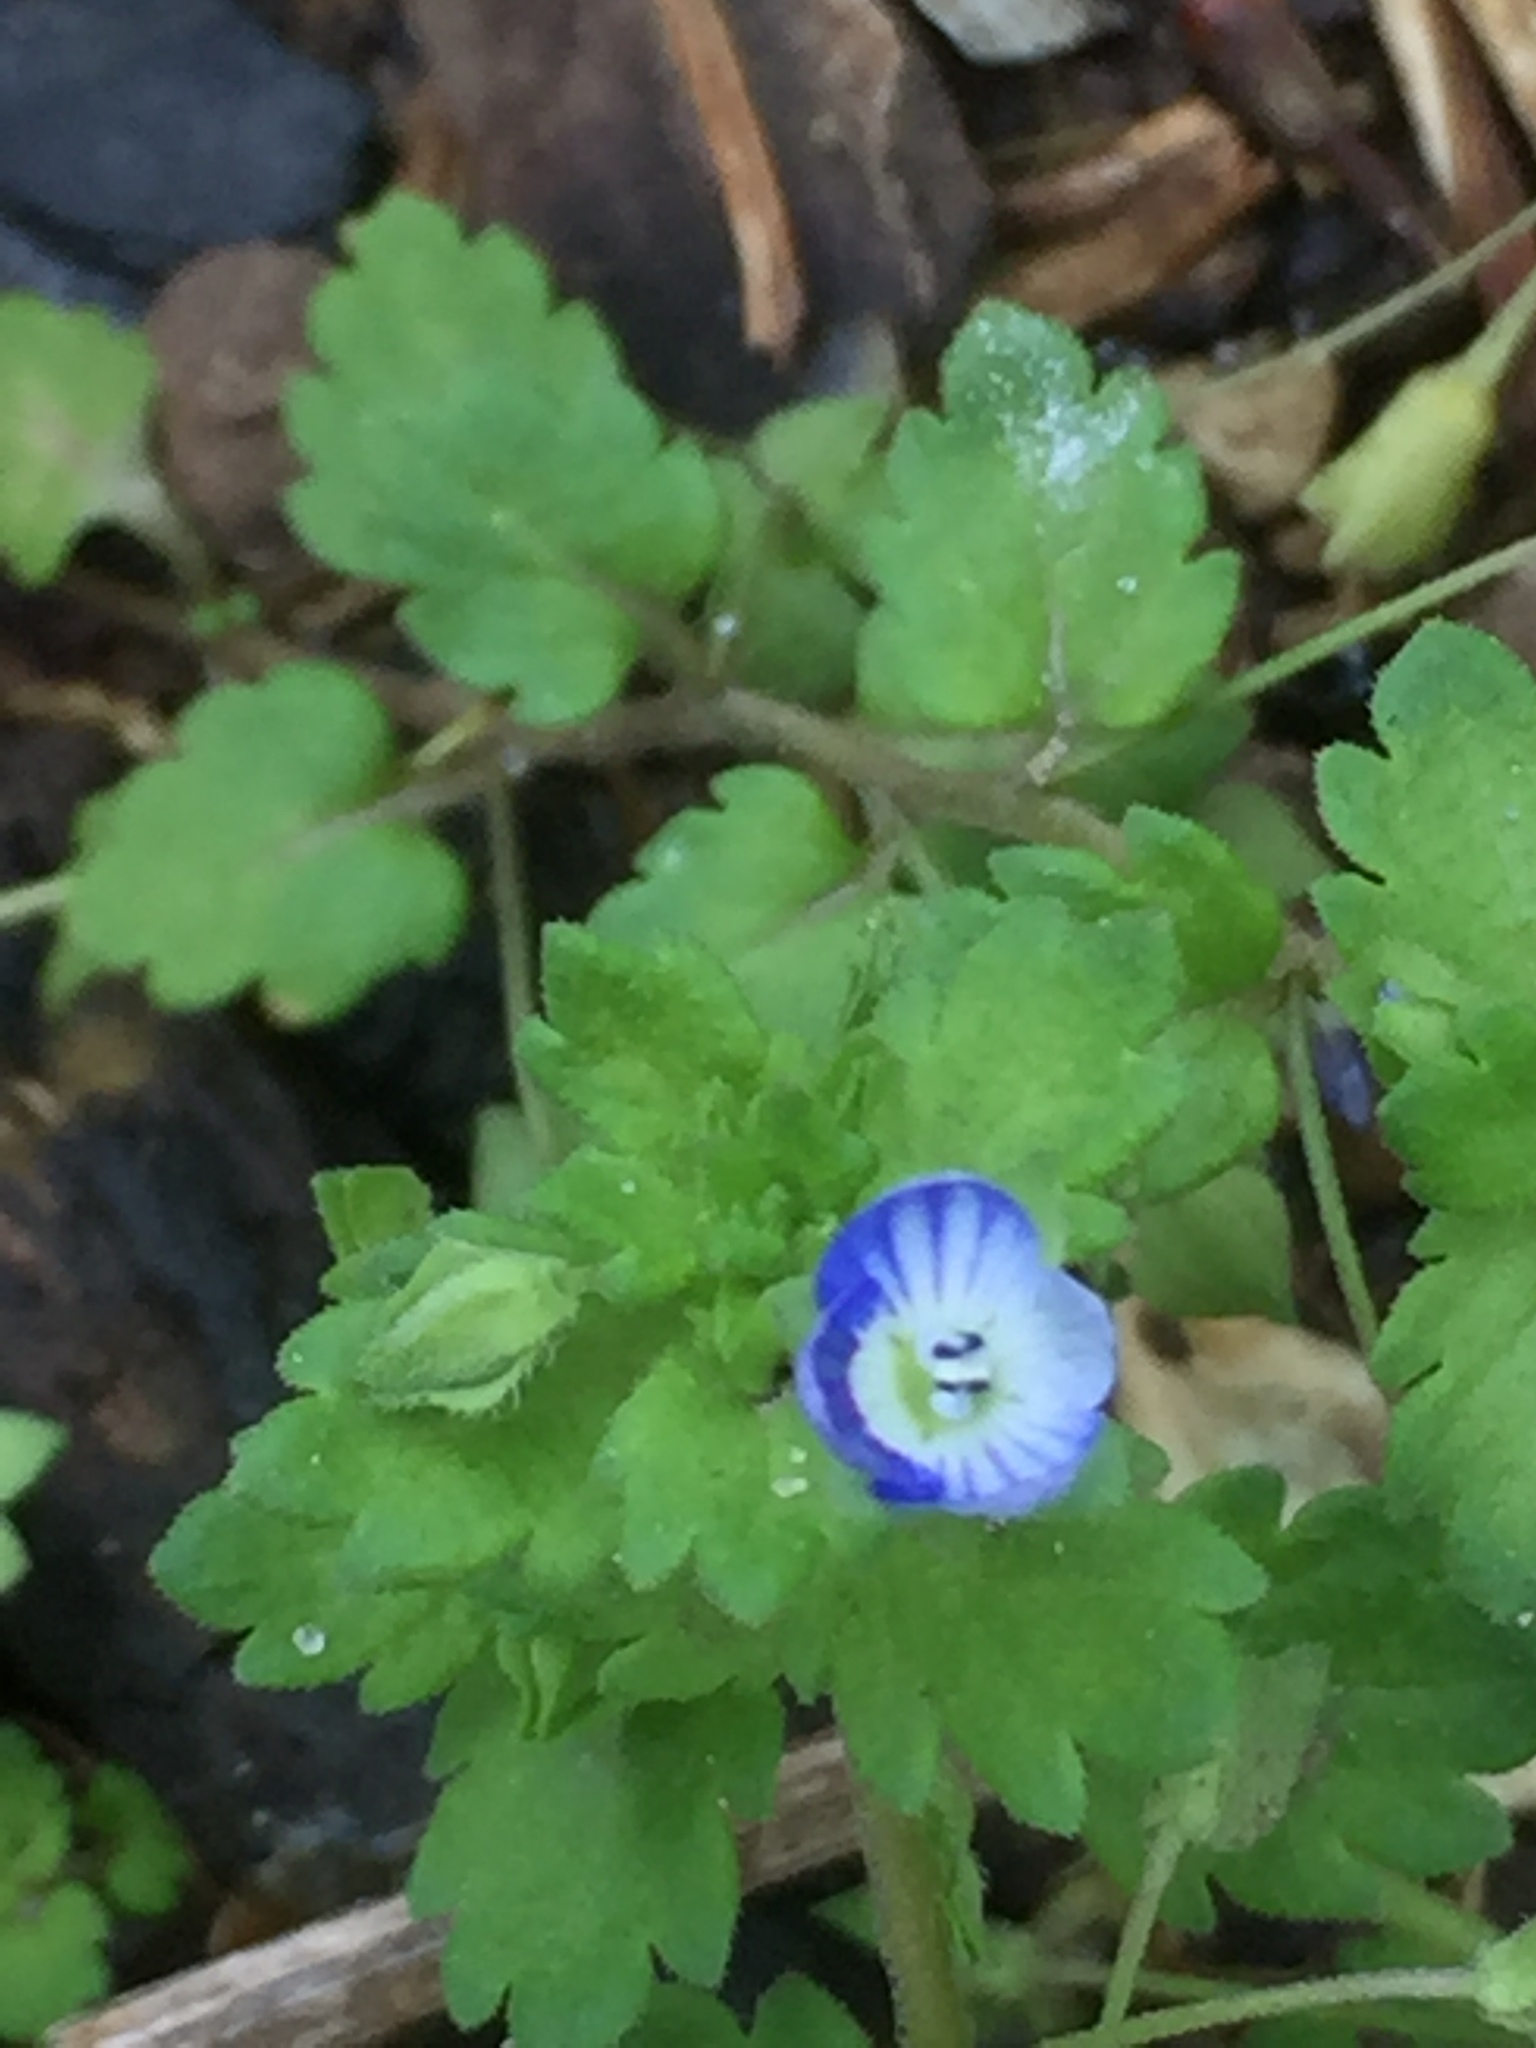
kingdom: Plantae
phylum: Tracheophyta
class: Magnoliopsida
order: Lamiales
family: Plantaginaceae
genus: Veronica
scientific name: Veronica persica
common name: Common field-speedwell
